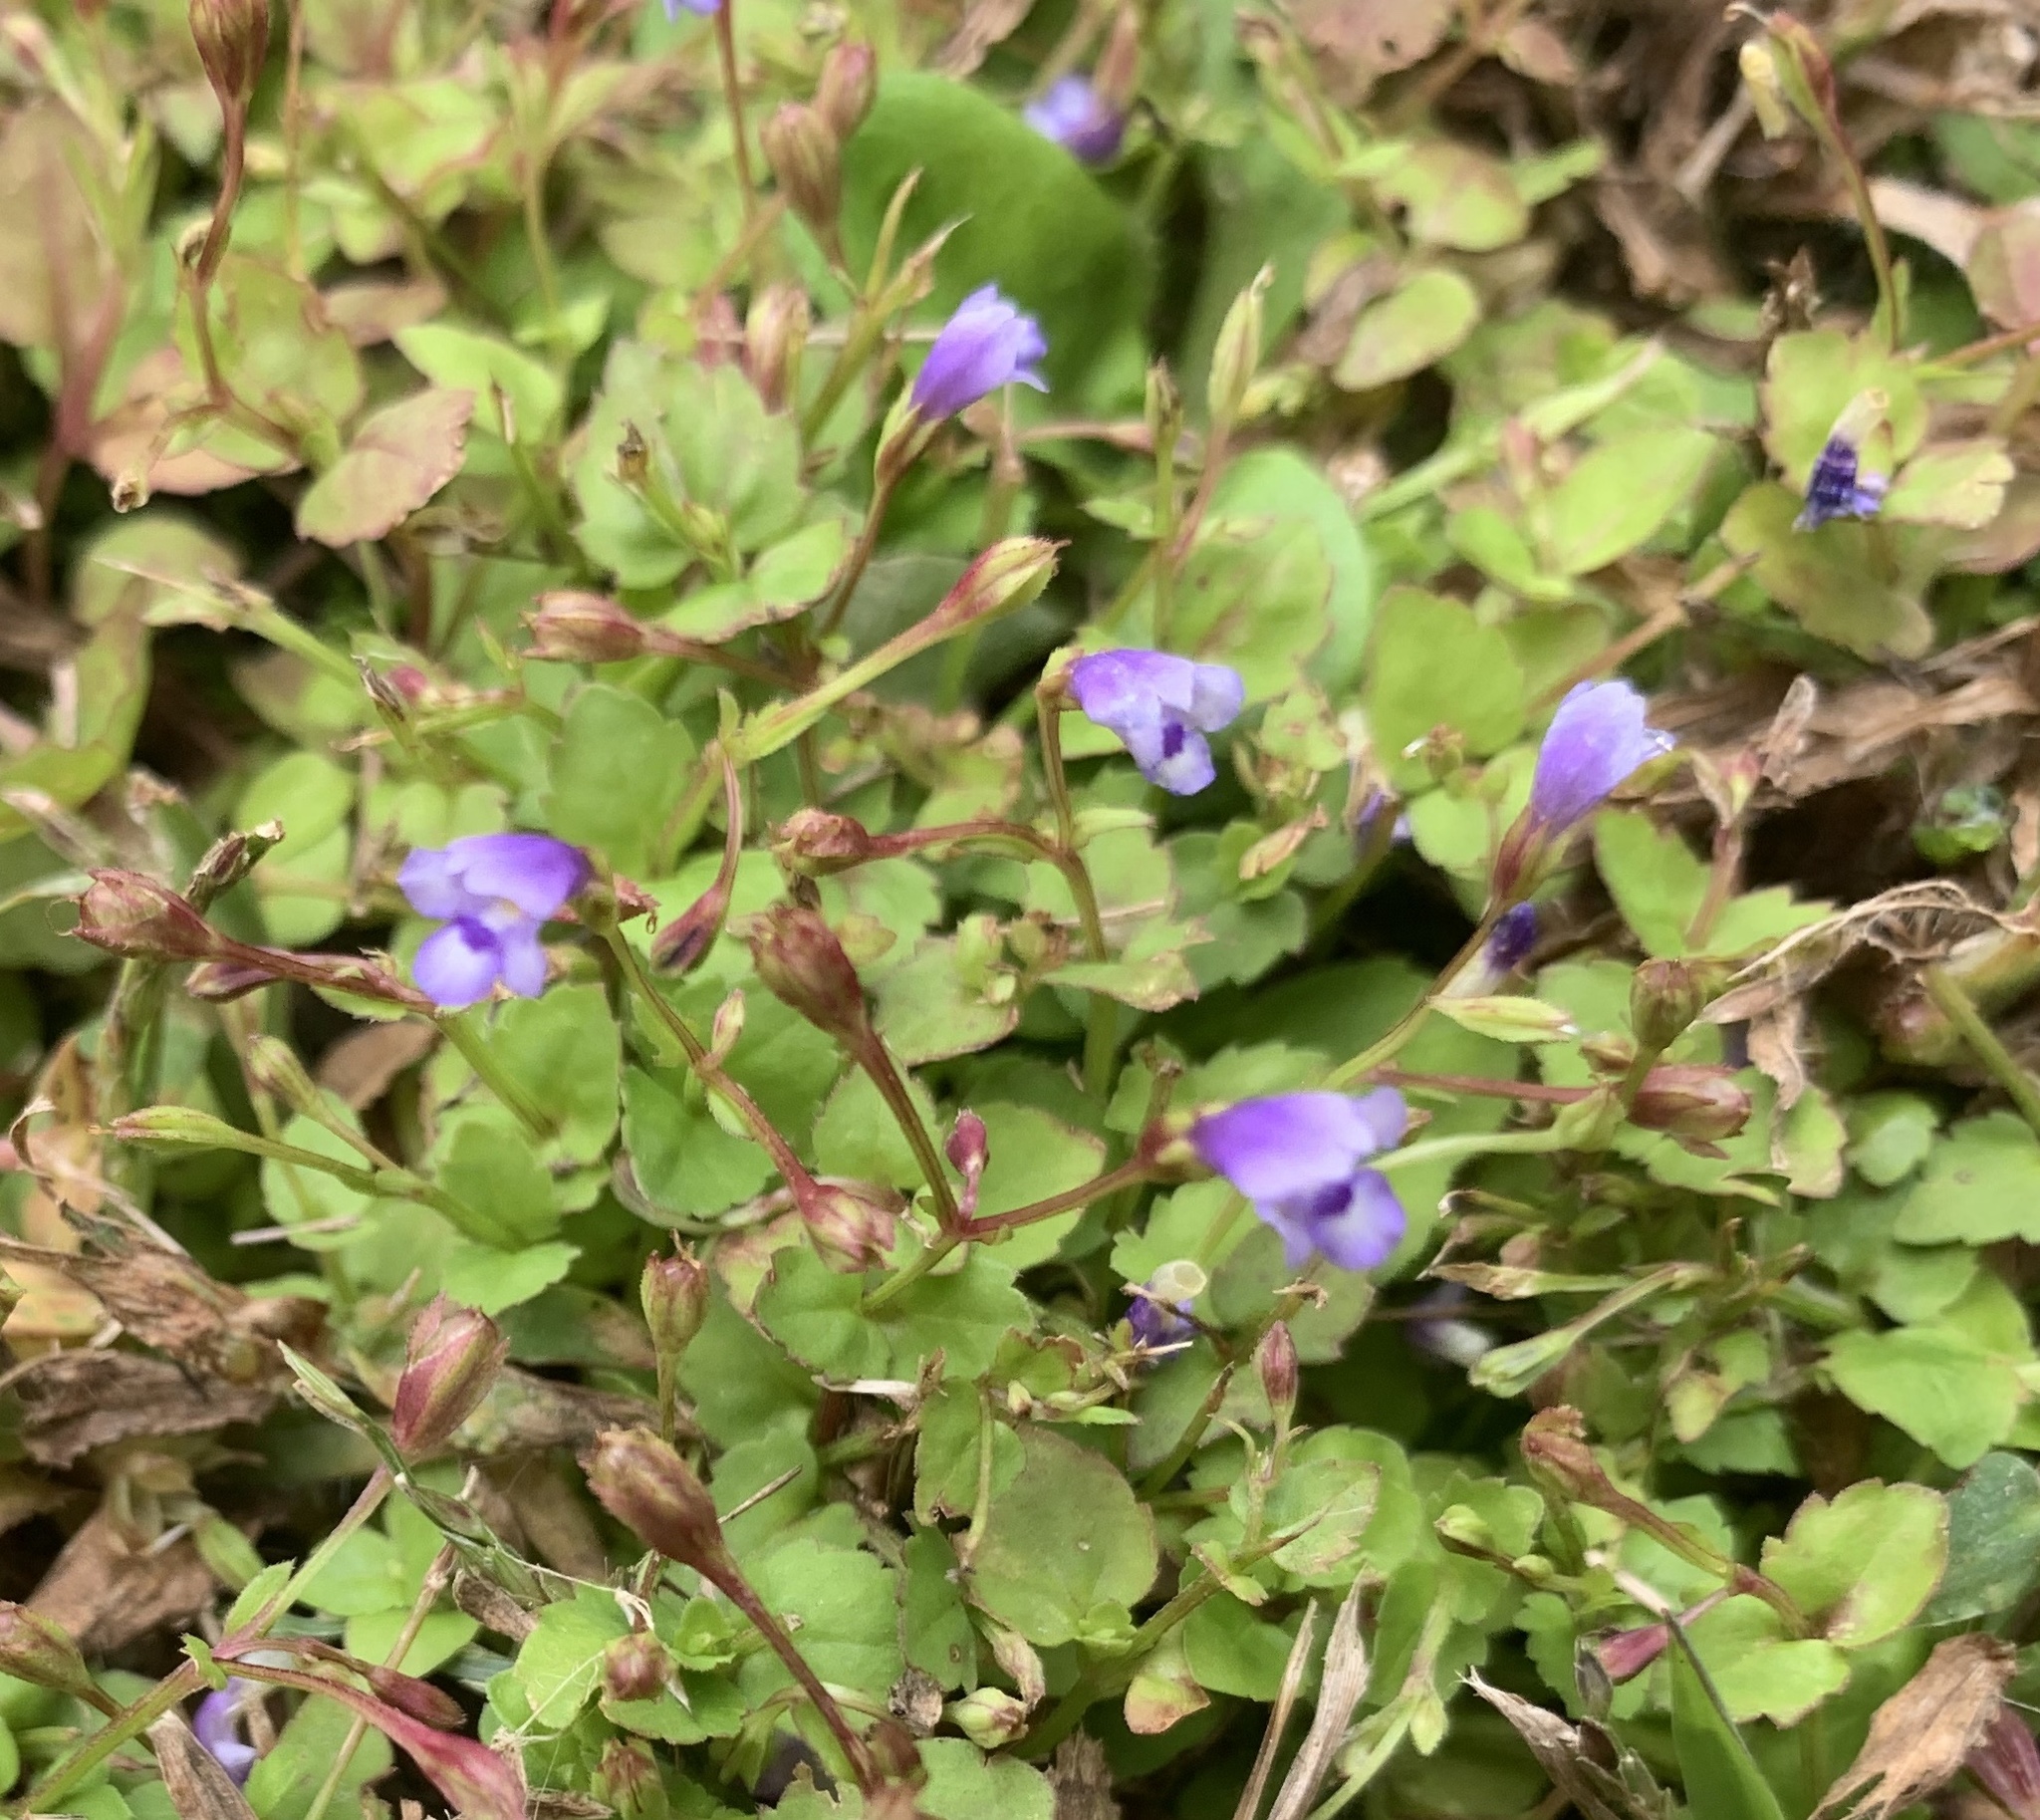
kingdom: Plantae
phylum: Tracheophyta
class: Magnoliopsida
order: Lamiales
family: Linderniaceae
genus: Torenia
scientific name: Torenia crustacea
